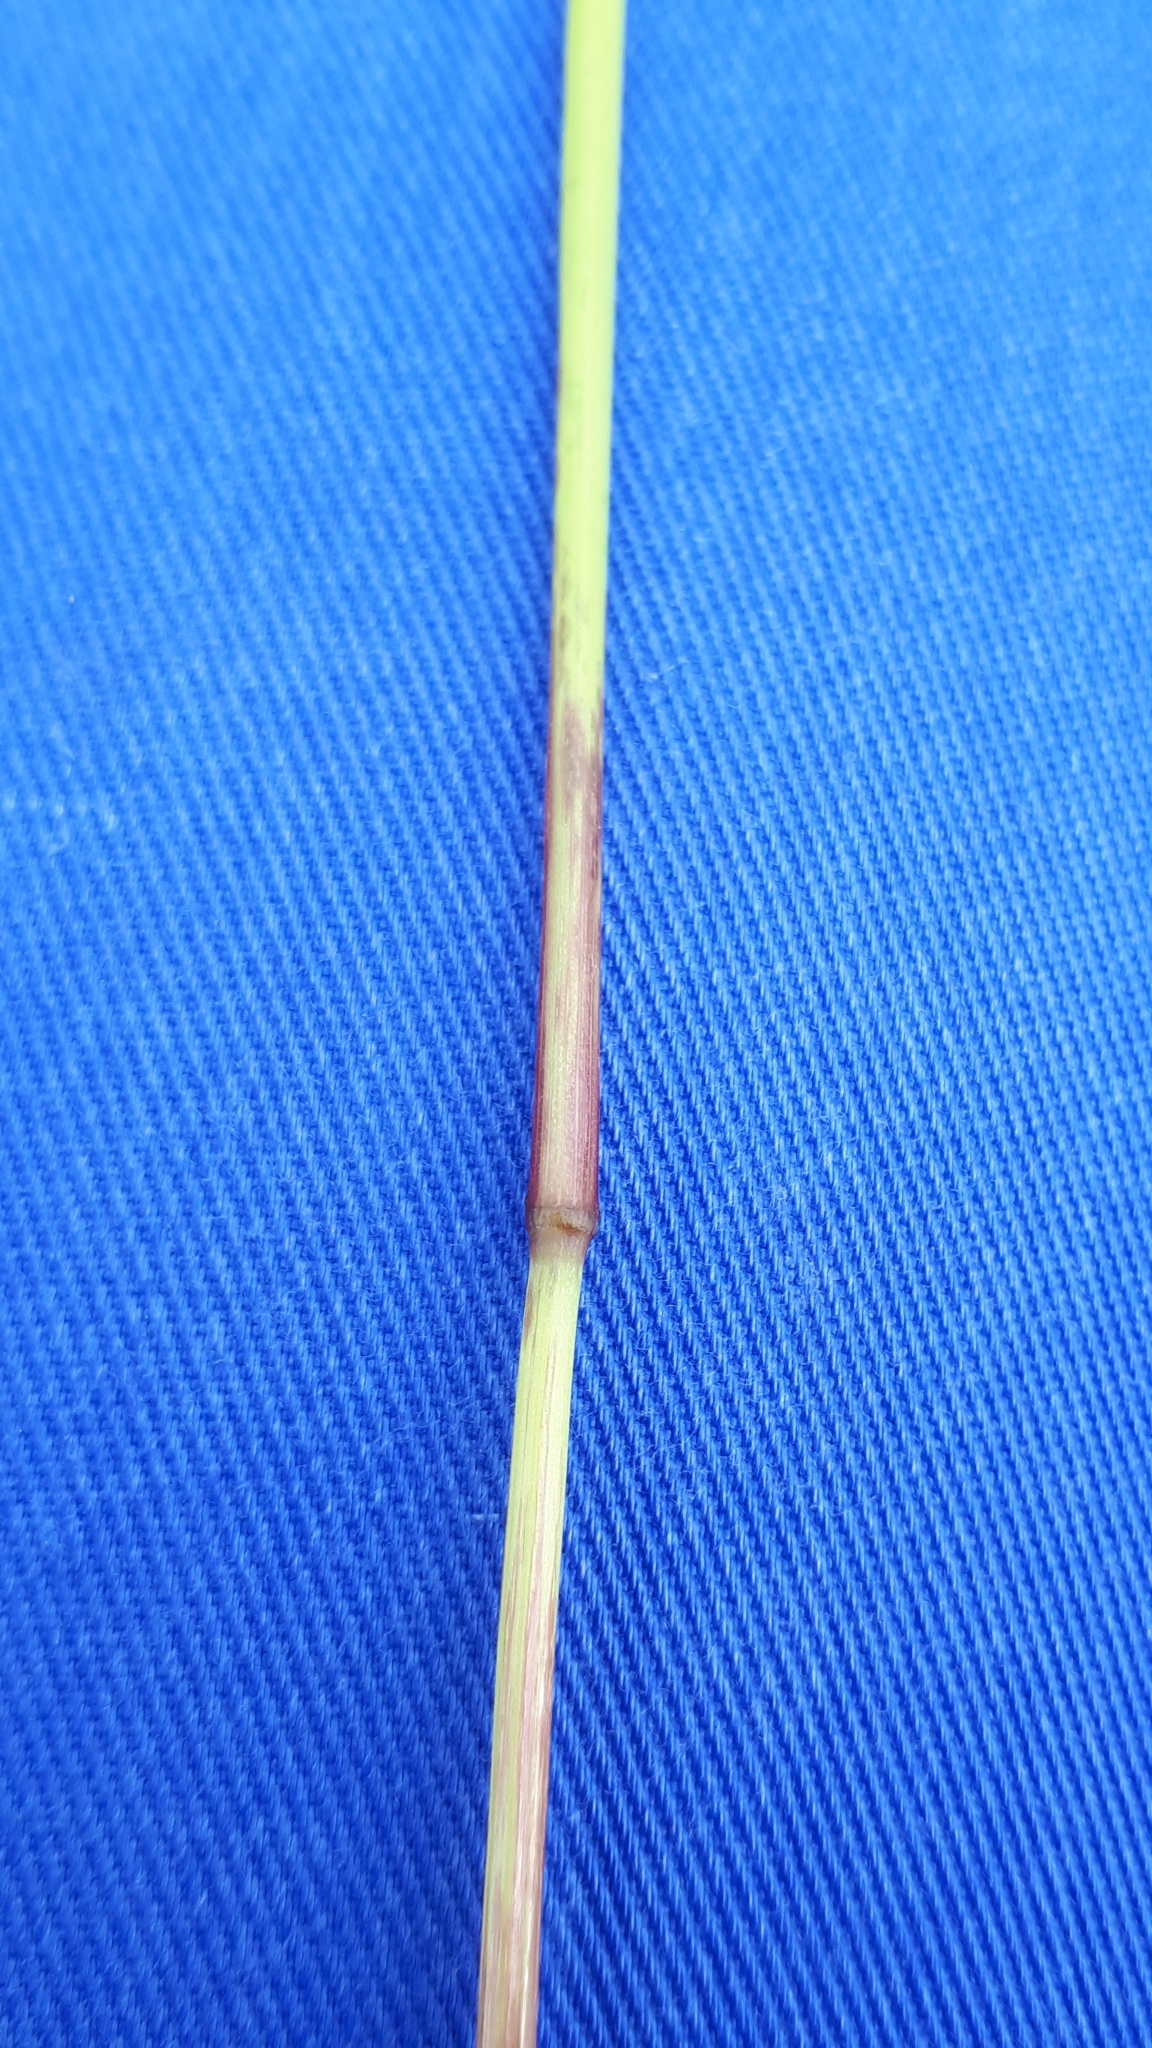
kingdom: Plantae
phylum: Tracheophyta
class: Liliopsida
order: Poales
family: Poaceae
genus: Helictochloa
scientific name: Helictochloa pratensis
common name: Meadow oat grass
